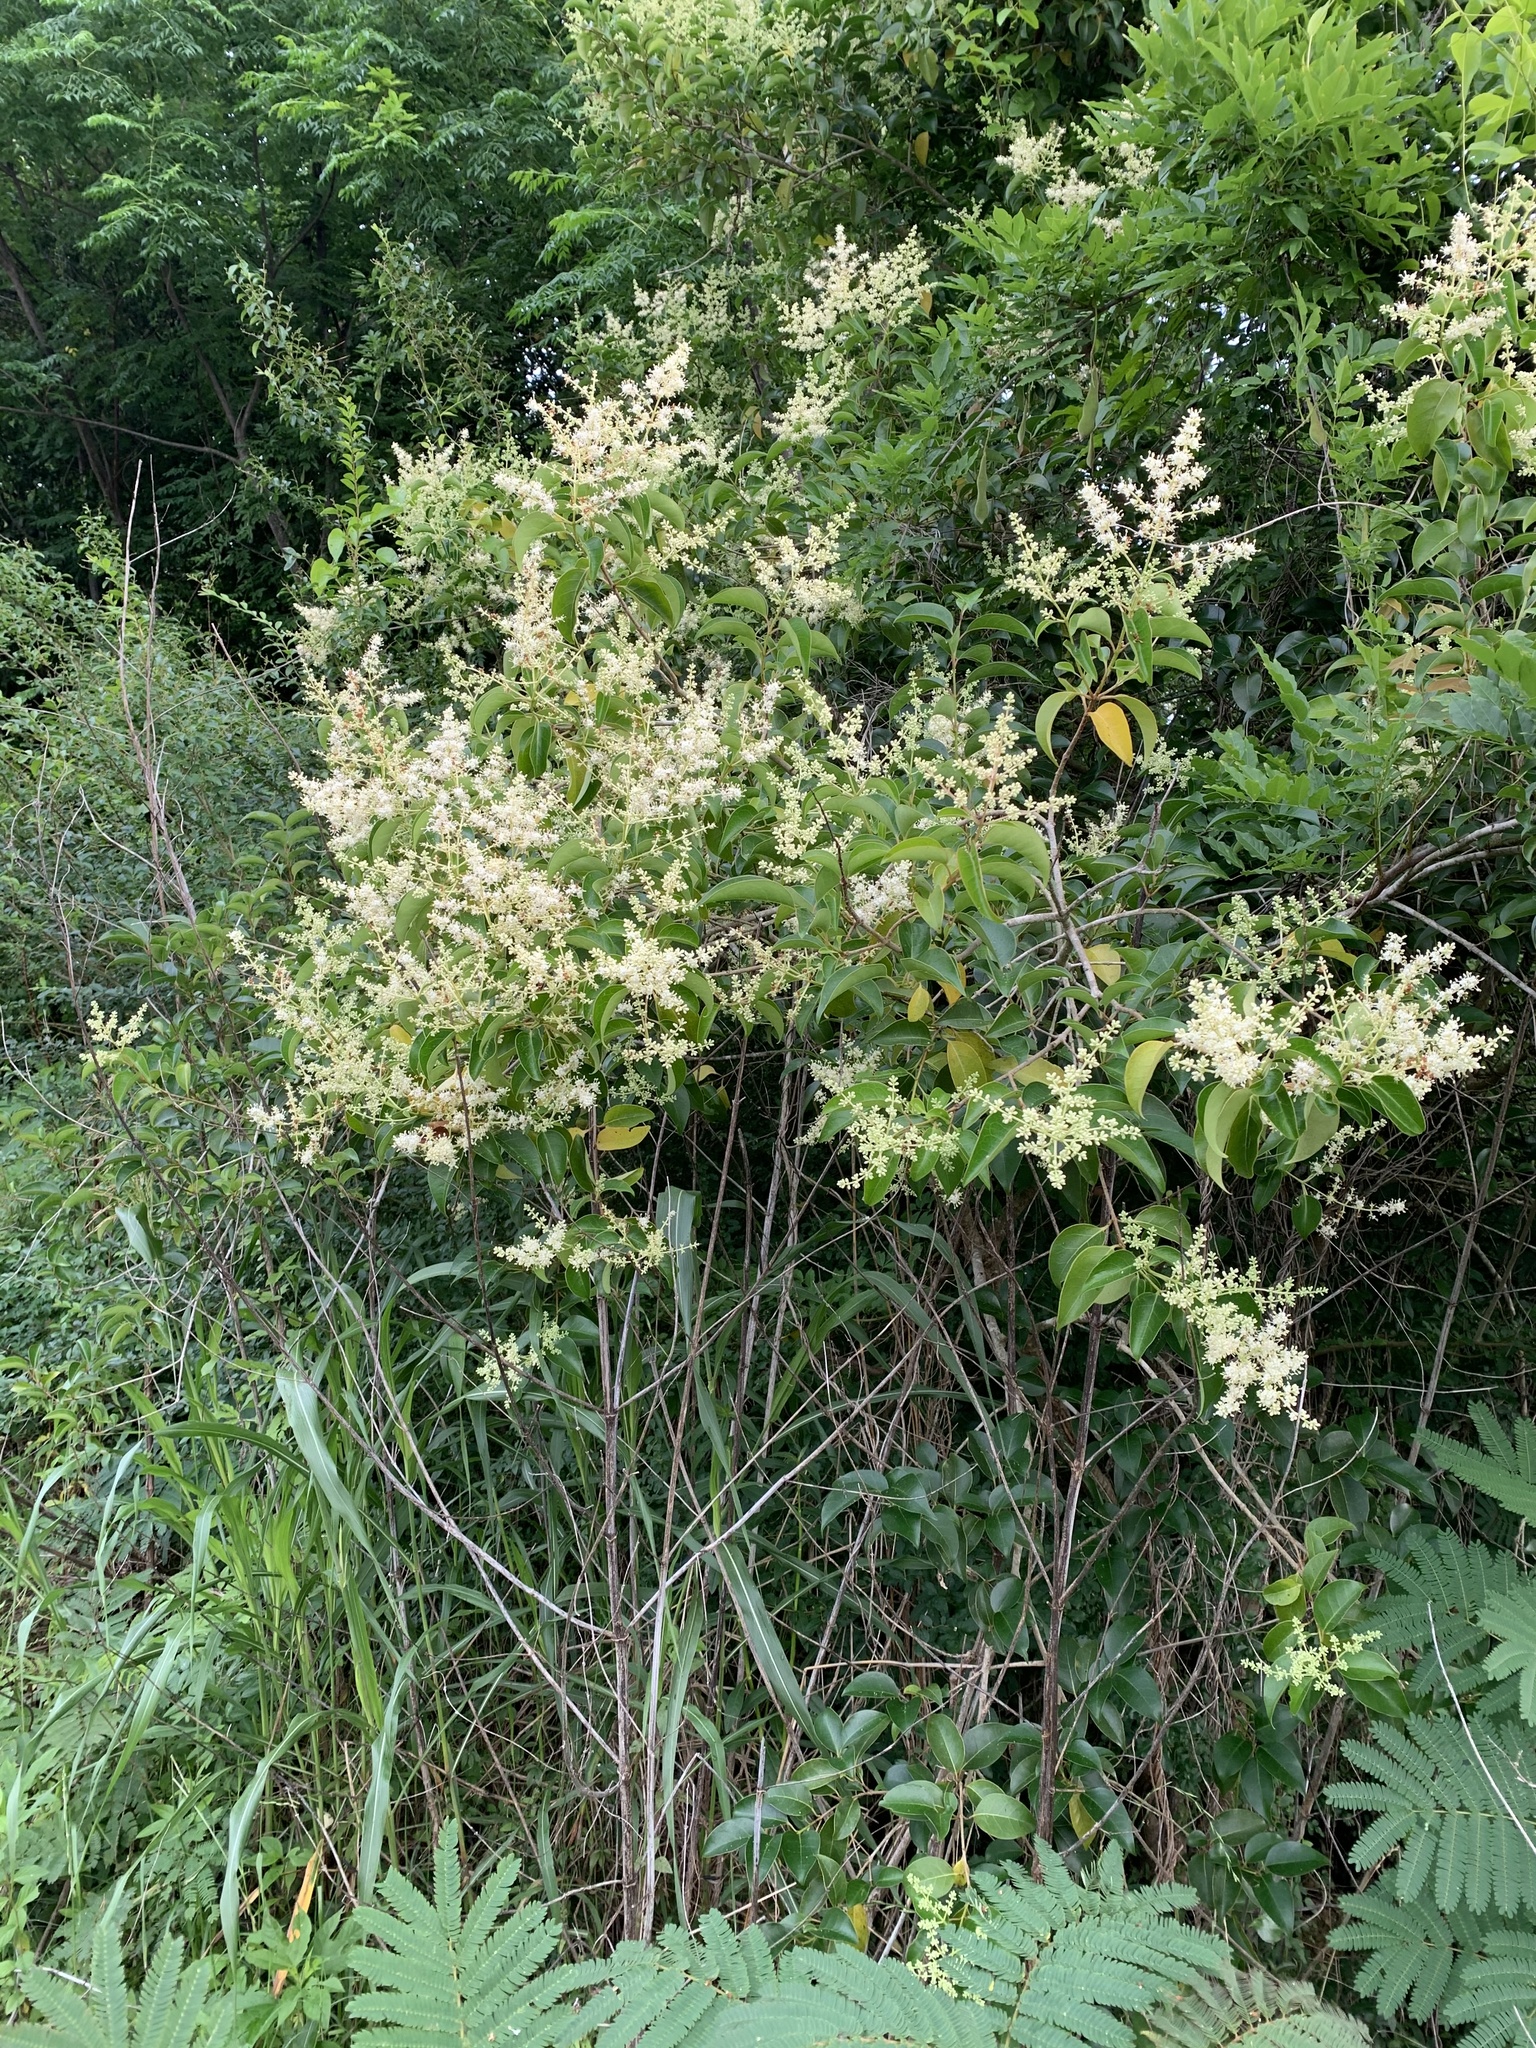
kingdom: Plantae
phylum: Tracheophyta
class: Magnoliopsida
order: Lamiales
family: Oleaceae
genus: Ligustrum
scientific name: Ligustrum lucidum
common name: Glossy privet
